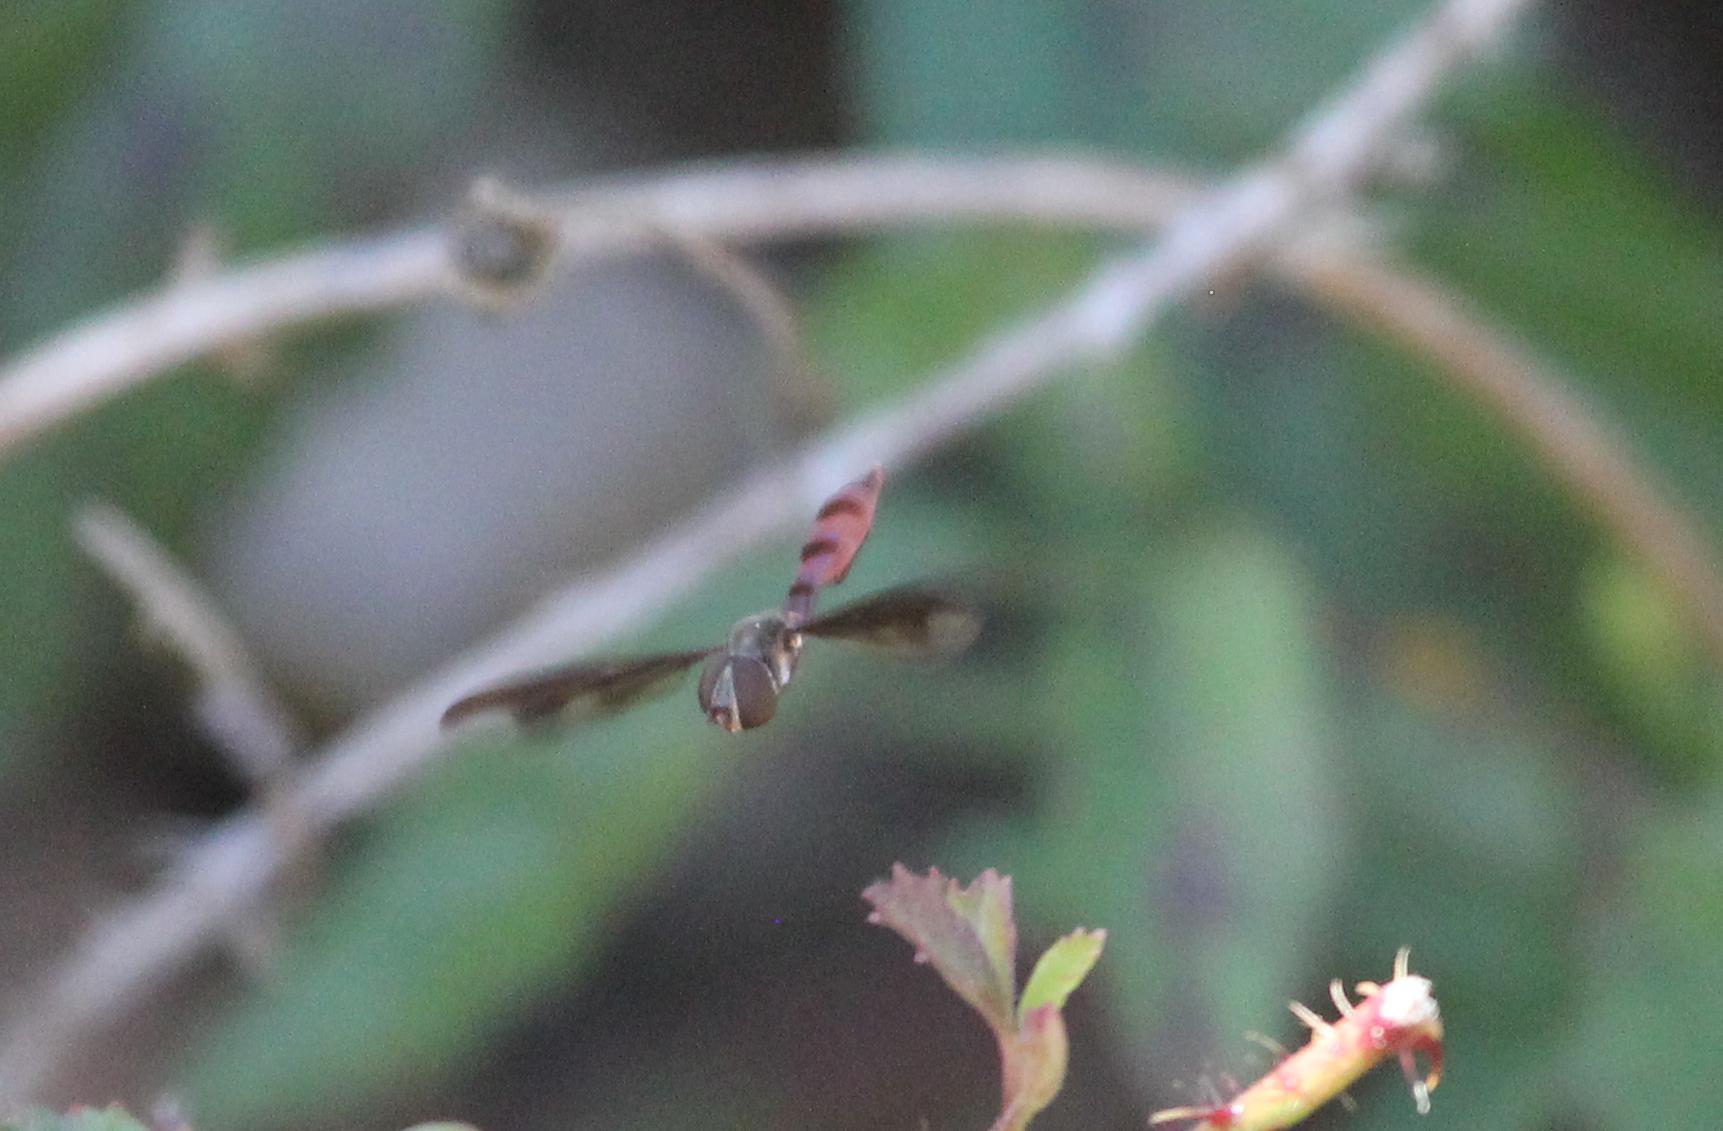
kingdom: Animalia
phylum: Arthropoda
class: Insecta
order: Diptera
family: Syrphidae
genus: Ocyptamus
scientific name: Ocyptamus fuscipennis
